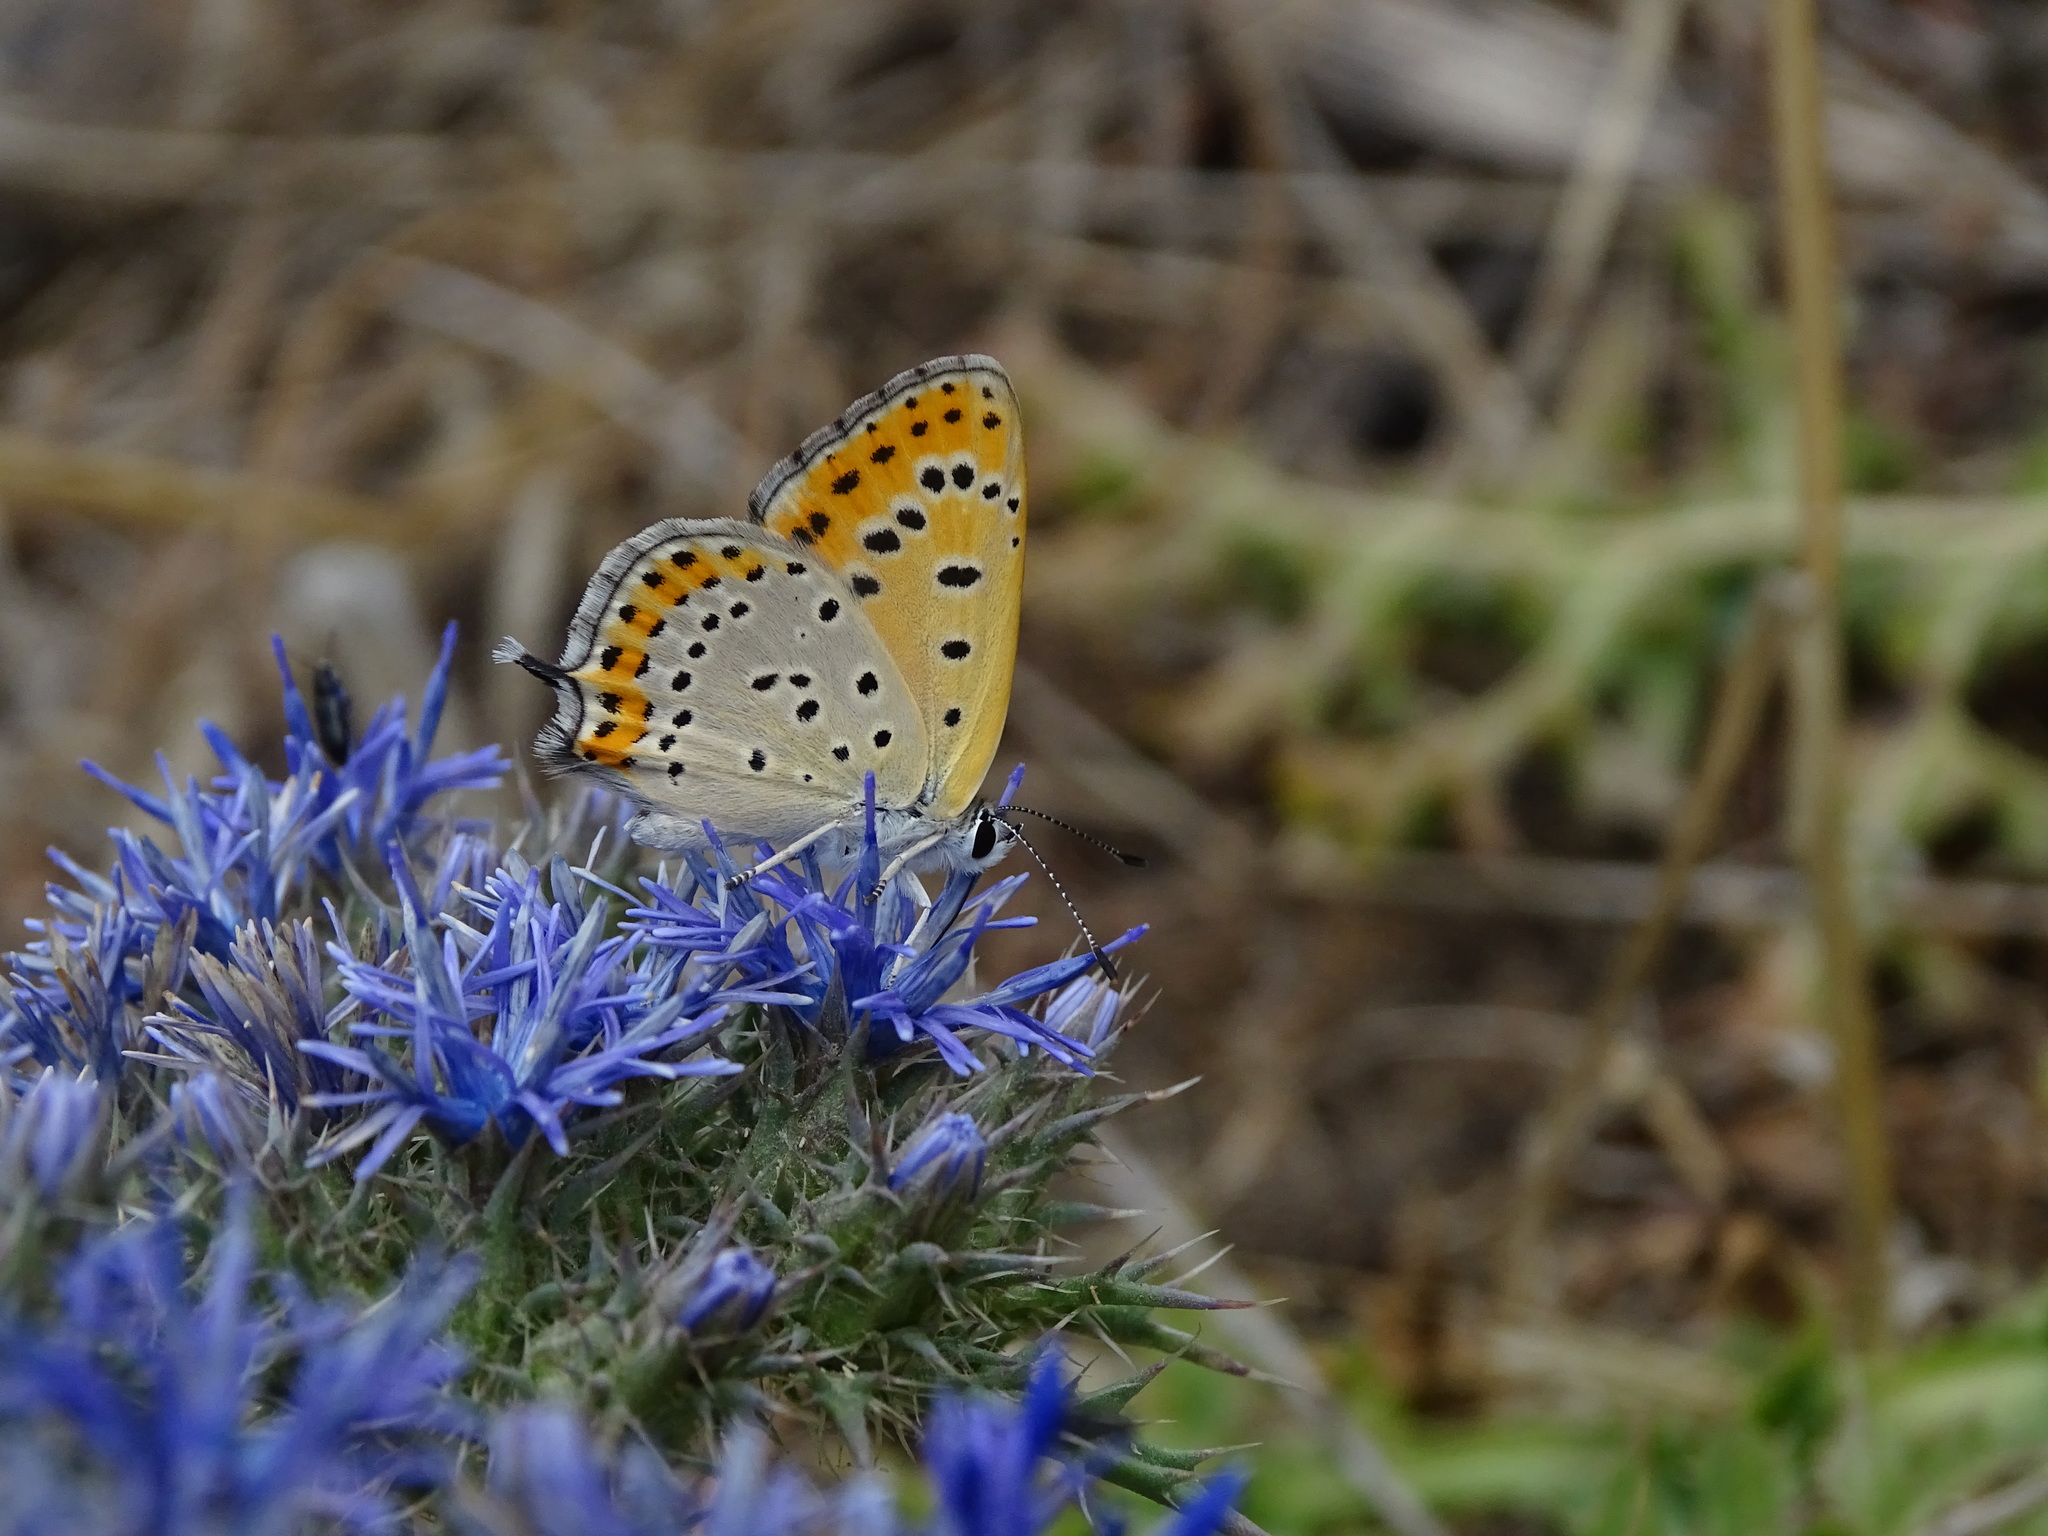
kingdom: Animalia
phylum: Arthropoda
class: Insecta
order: Lepidoptera
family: Lycaenidae
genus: Thersamonia
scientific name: Thersamonia thersamon
